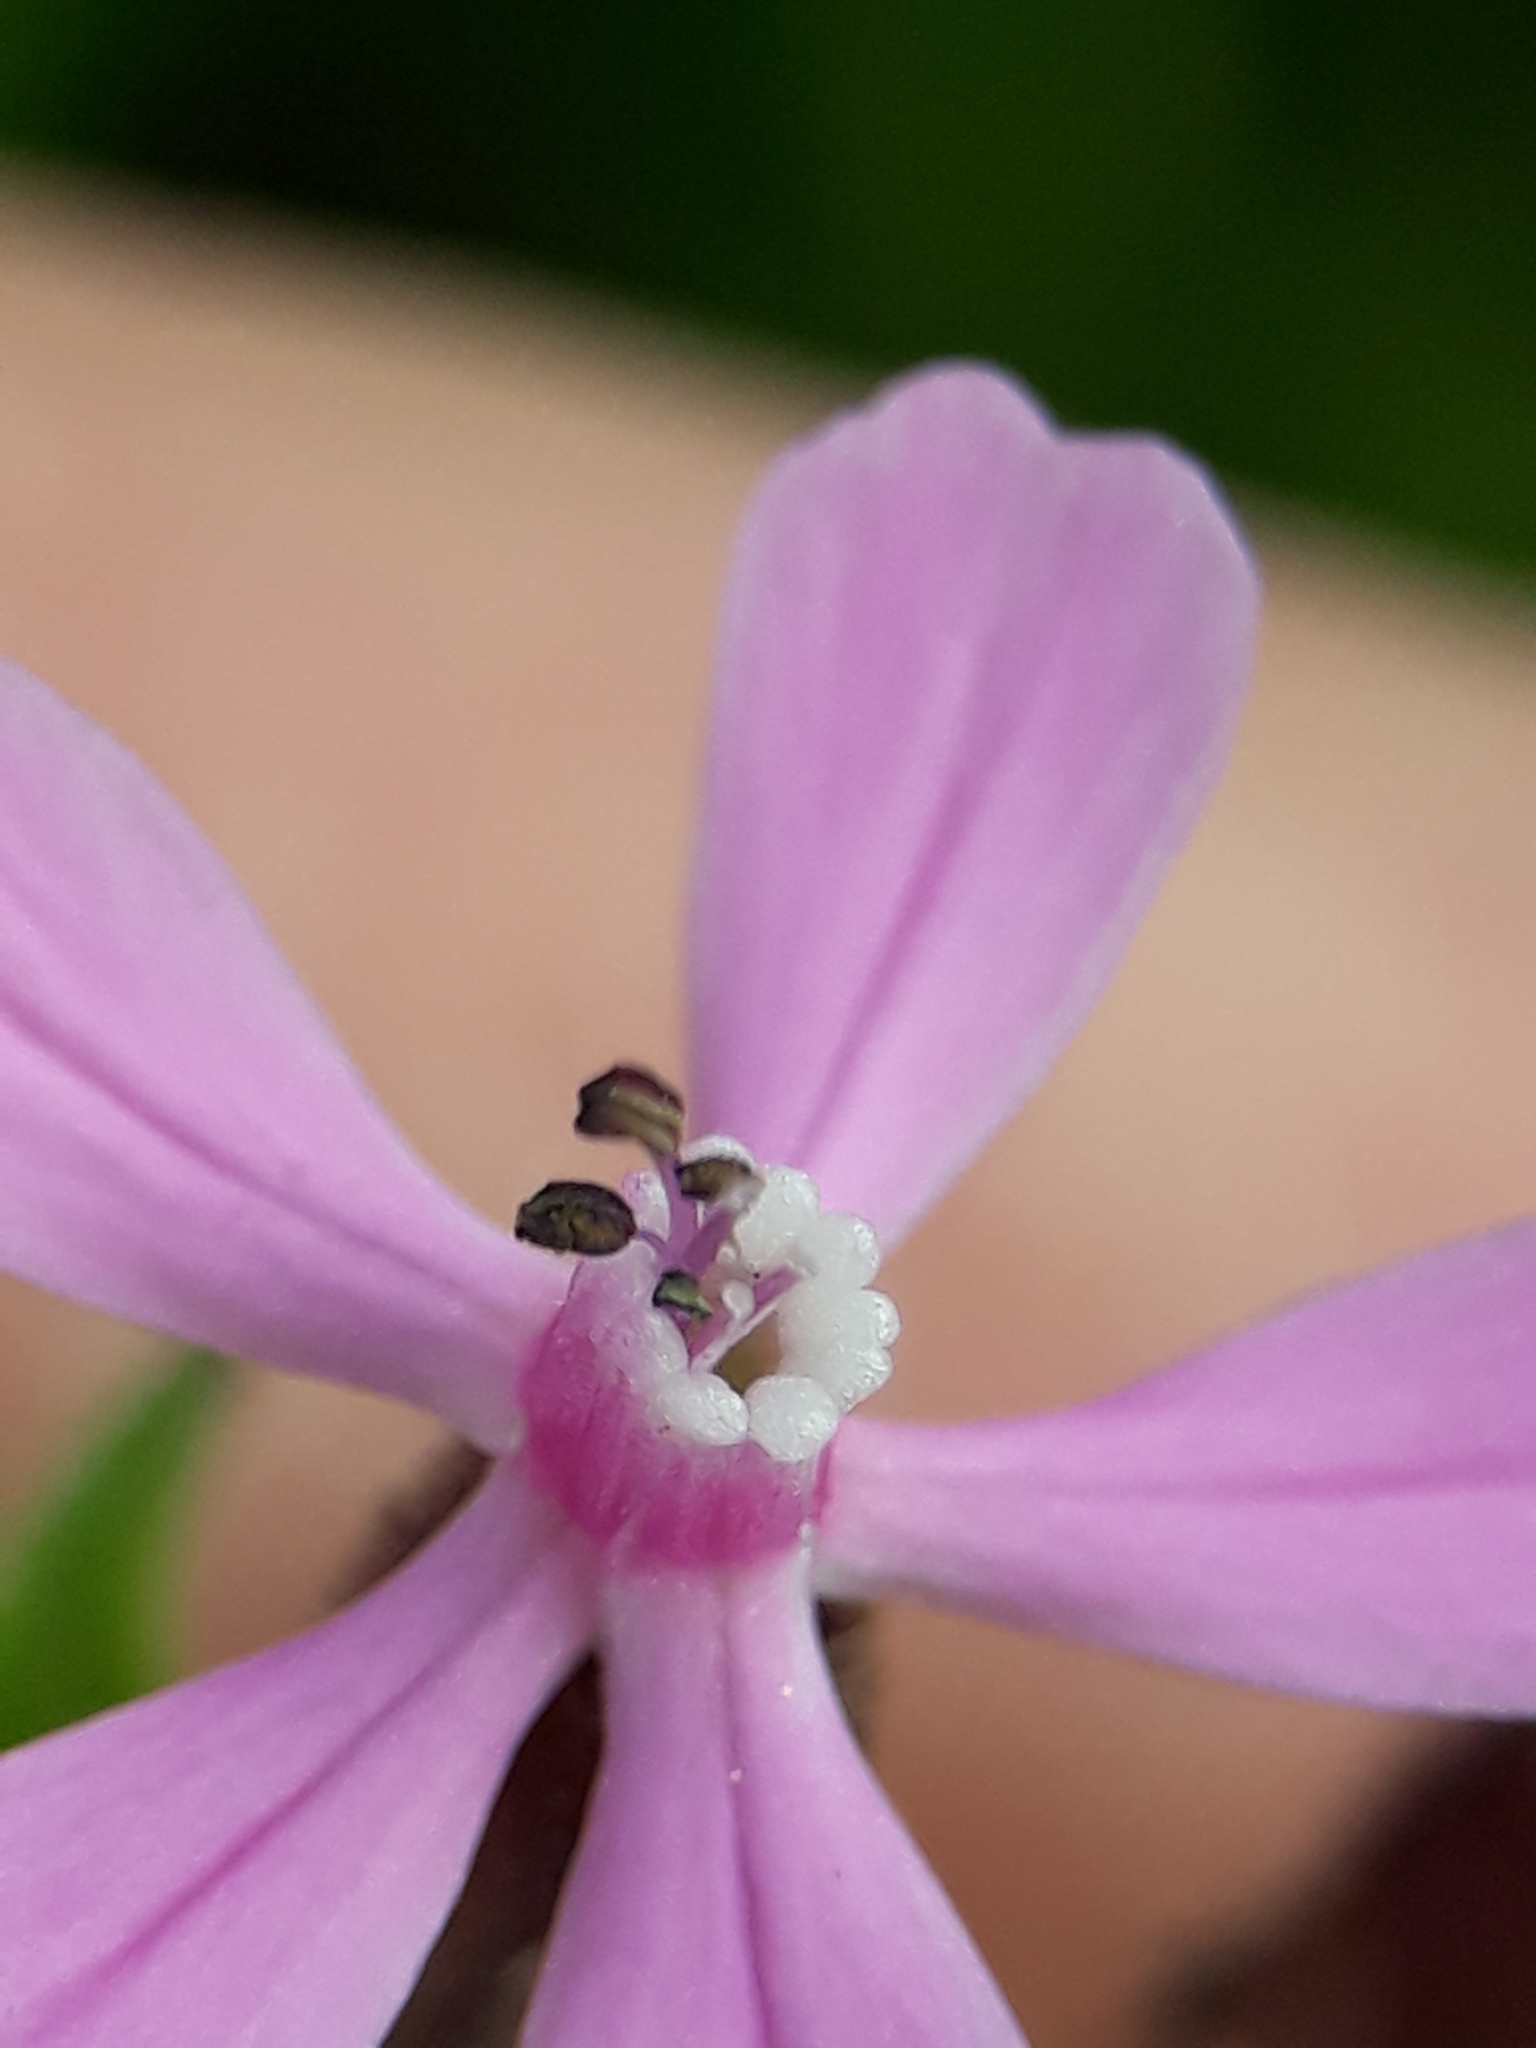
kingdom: Plantae
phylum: Tracheophyta
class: Magnoliopsida
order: Caryophyllales
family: Caryophyllaceae
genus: Silene
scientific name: Silene fuscata
